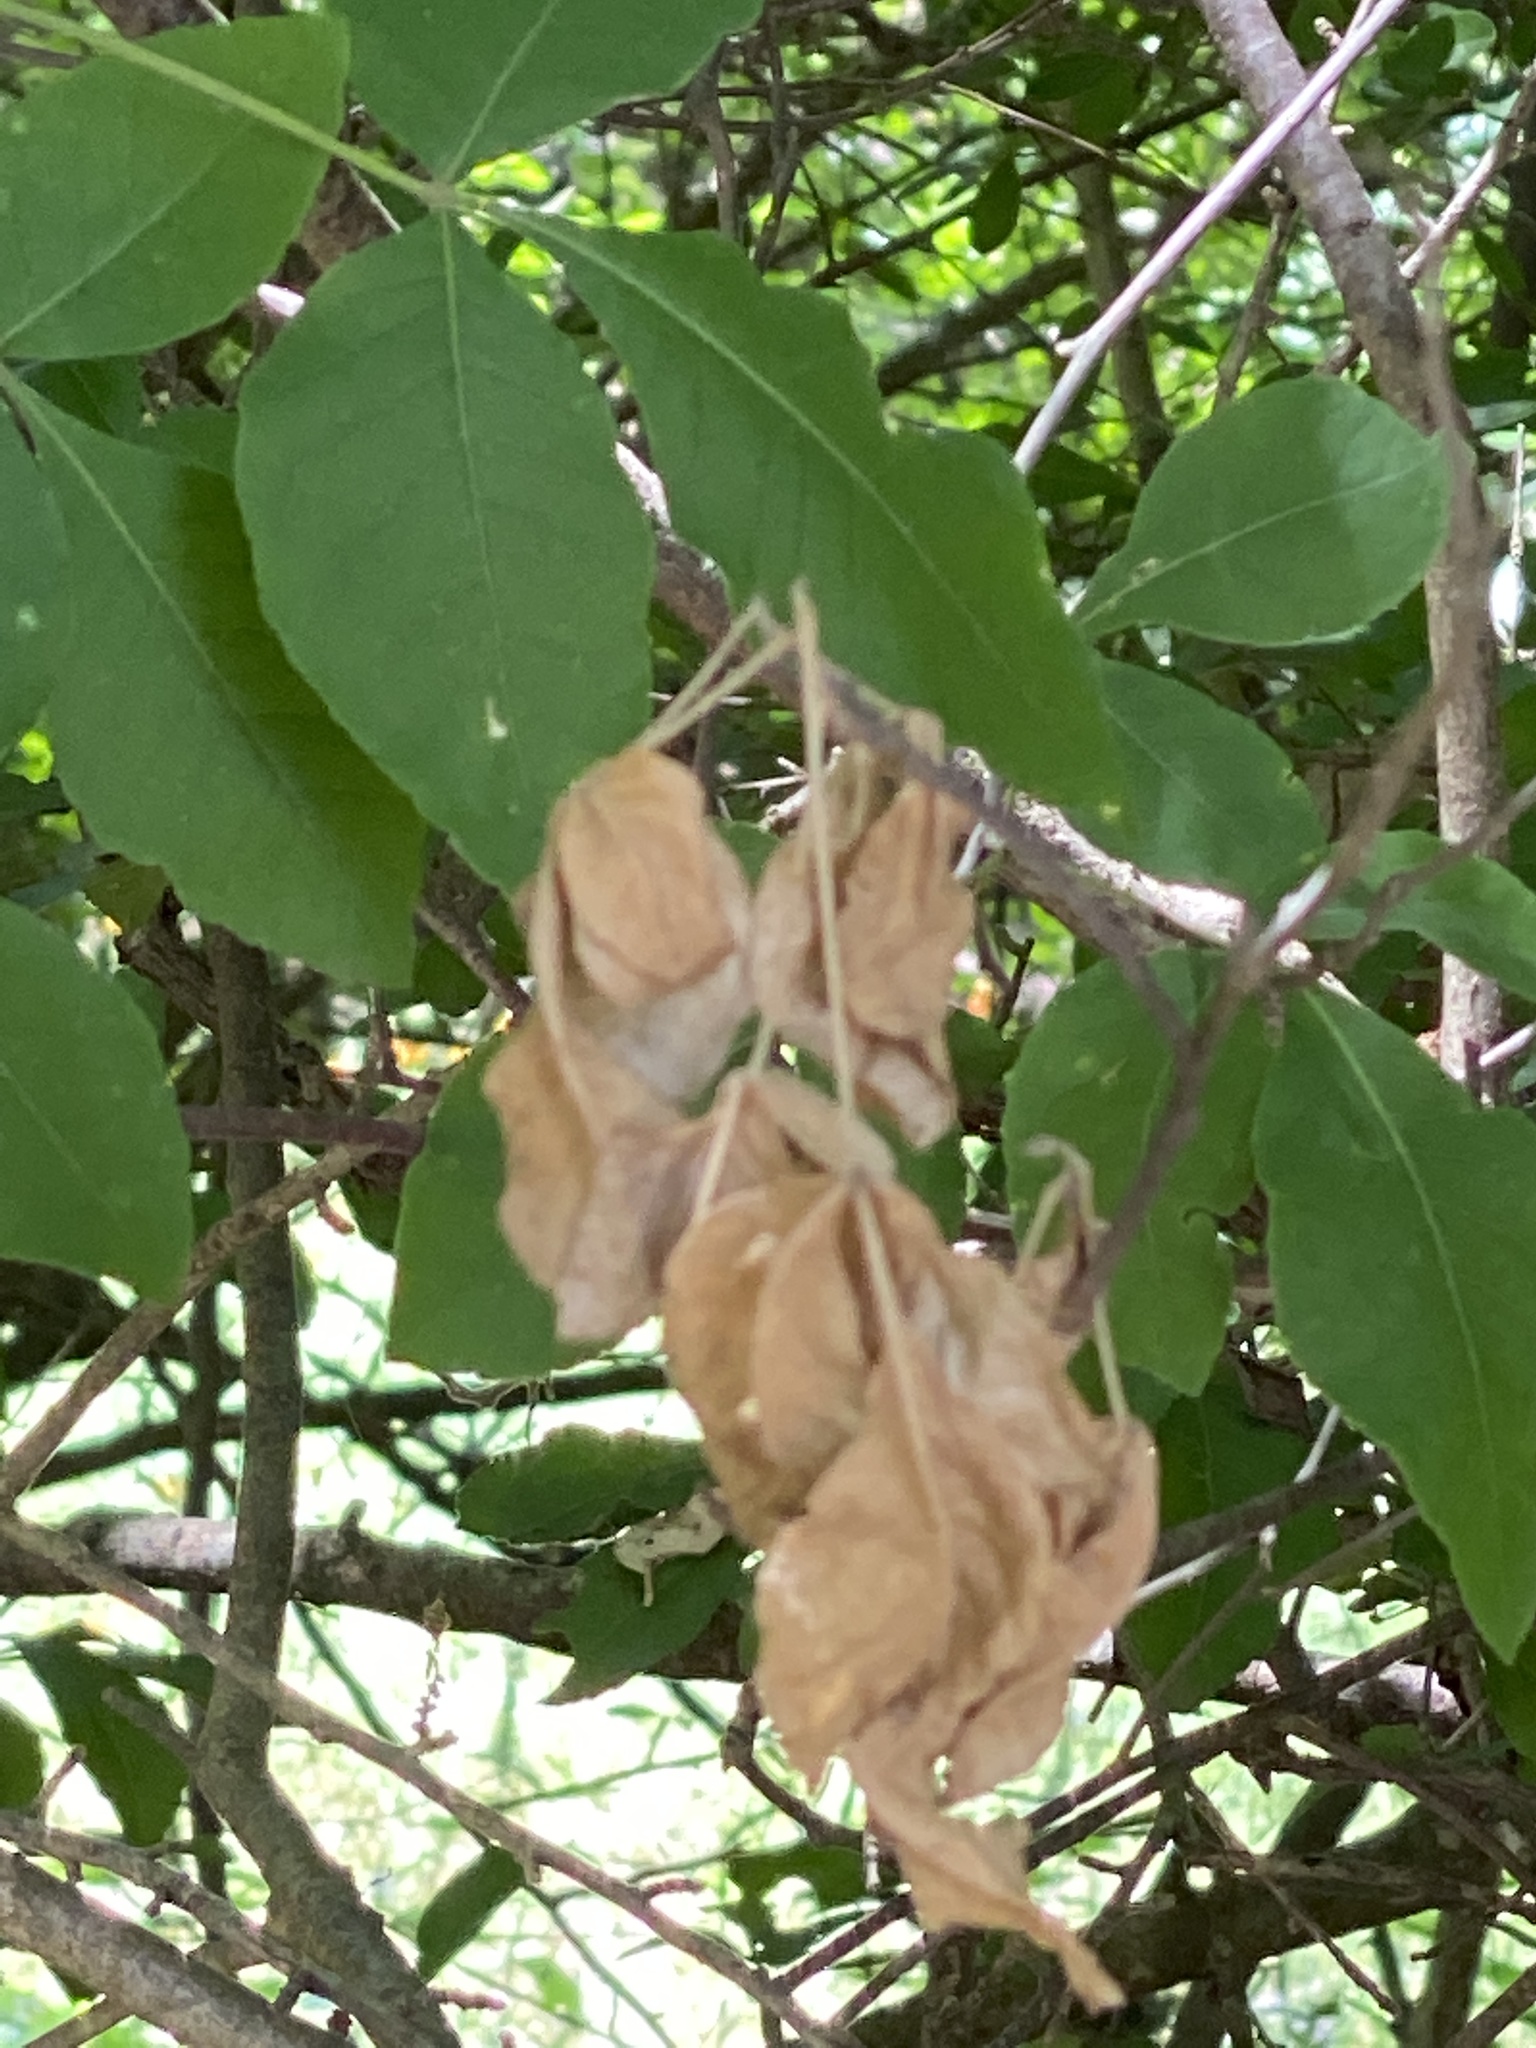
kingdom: Plantae
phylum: Tracheophyta
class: Magnoliopsida
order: Sapindales
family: Rutaceae
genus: Ptelea
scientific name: Ptelea trifoliata
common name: Common hop-tree
